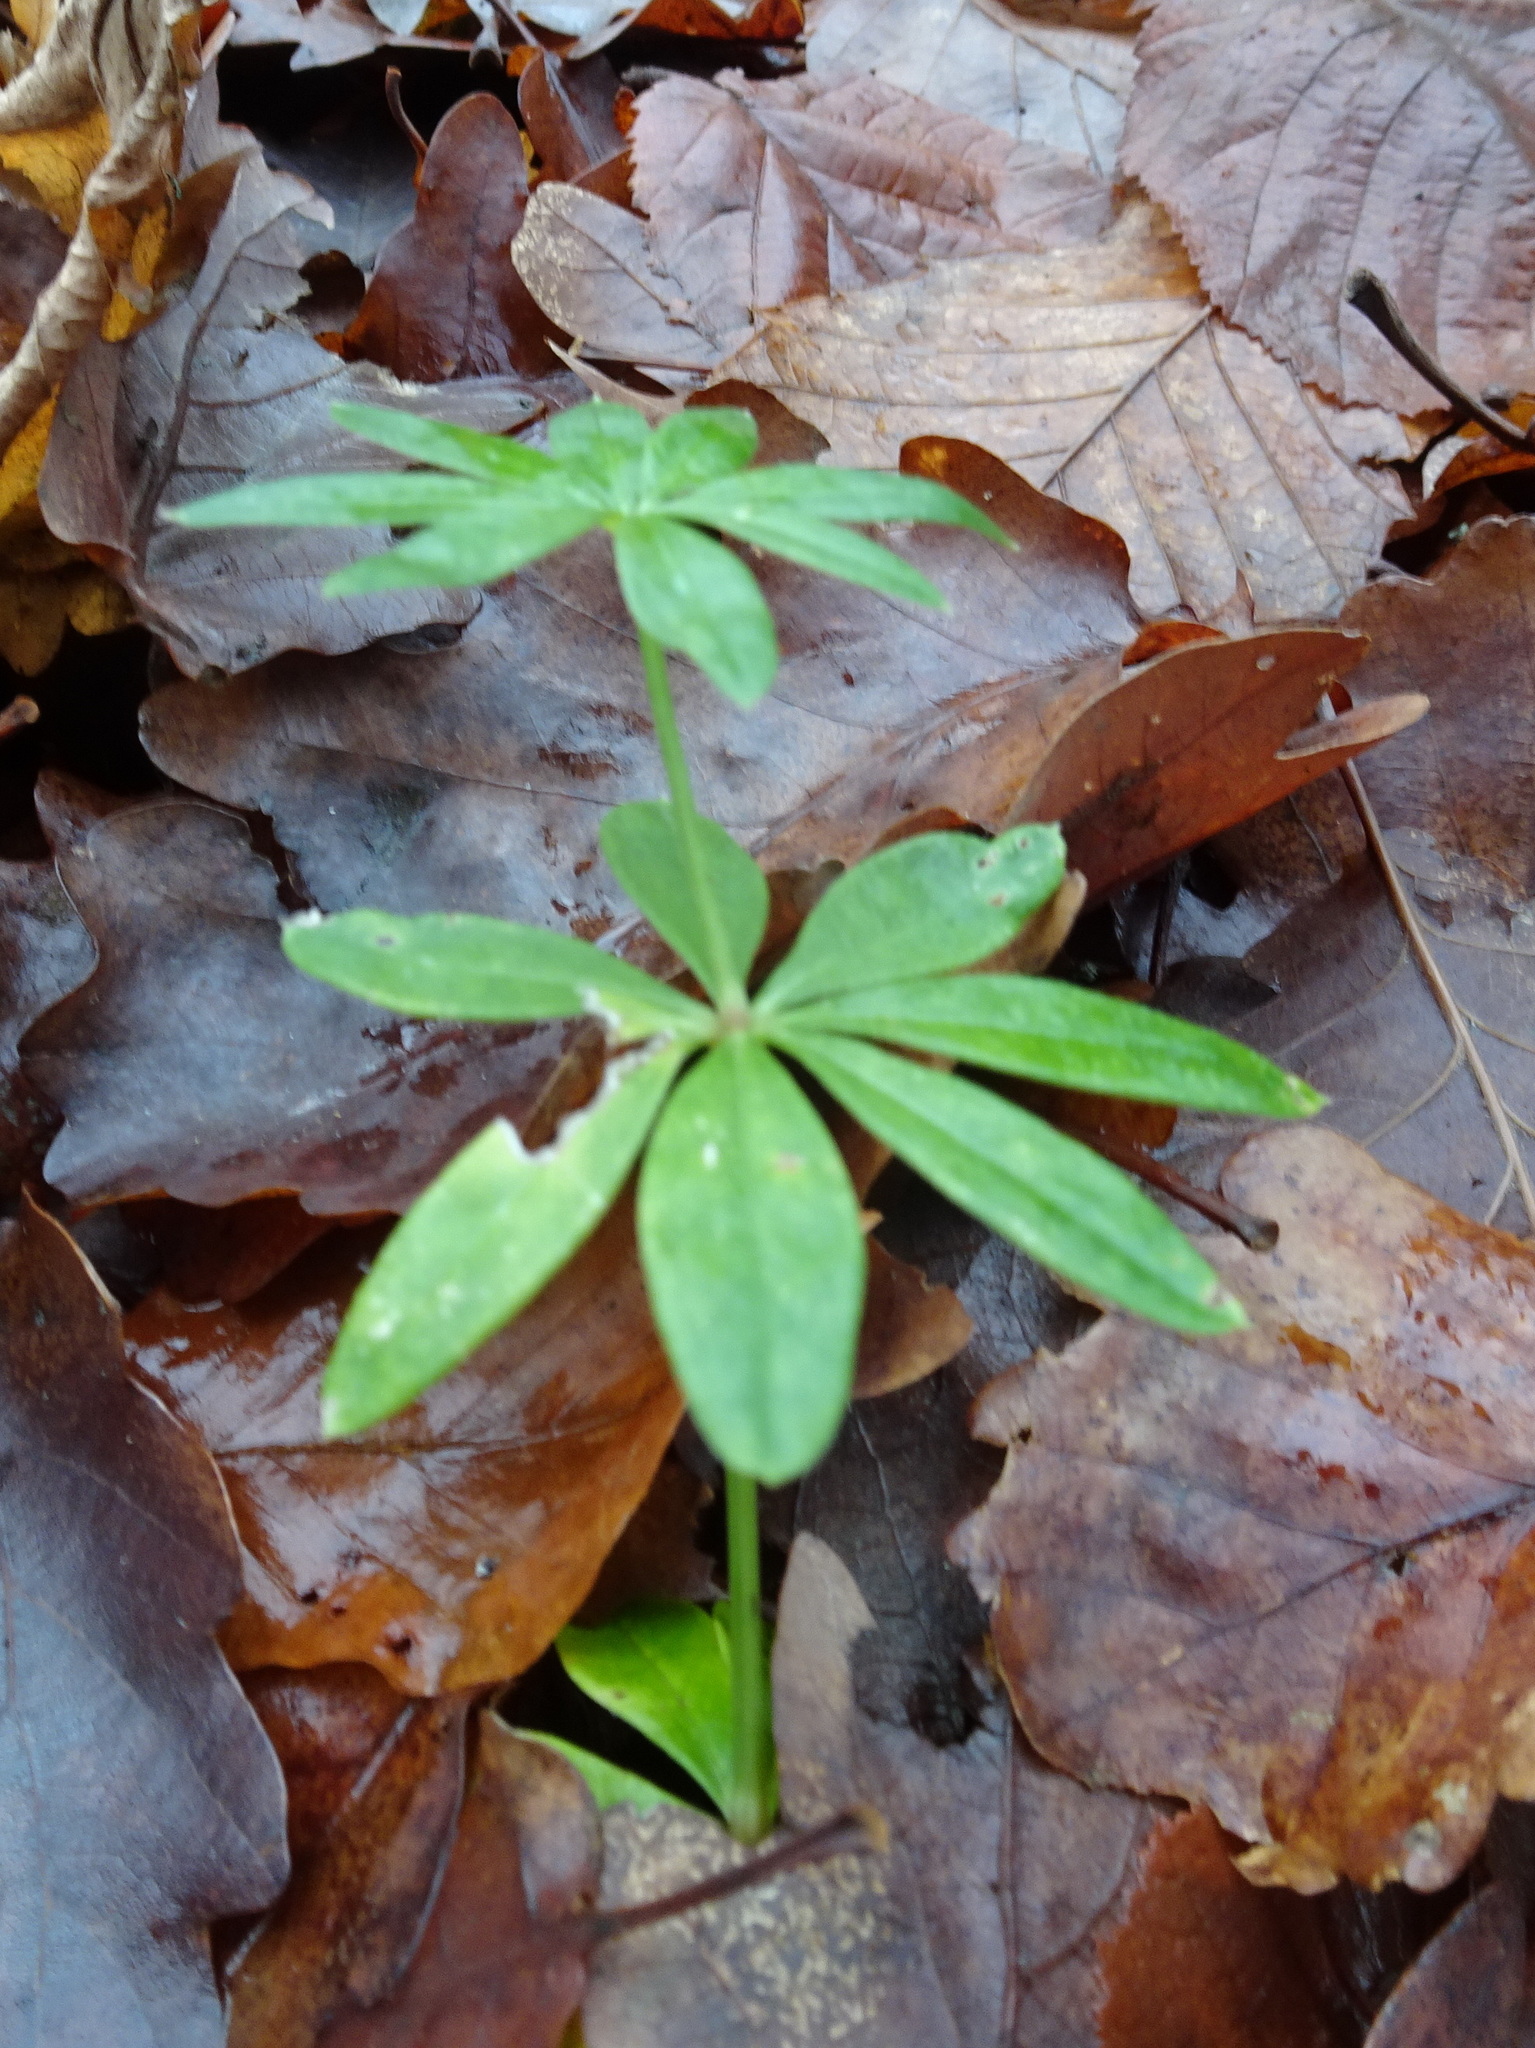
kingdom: Plantae
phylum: Tracheophyta
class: Magnoliopsida
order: Gentianales
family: Rubiaceae
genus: Galium
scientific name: Galium odoratum
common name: Sweet woodruff
